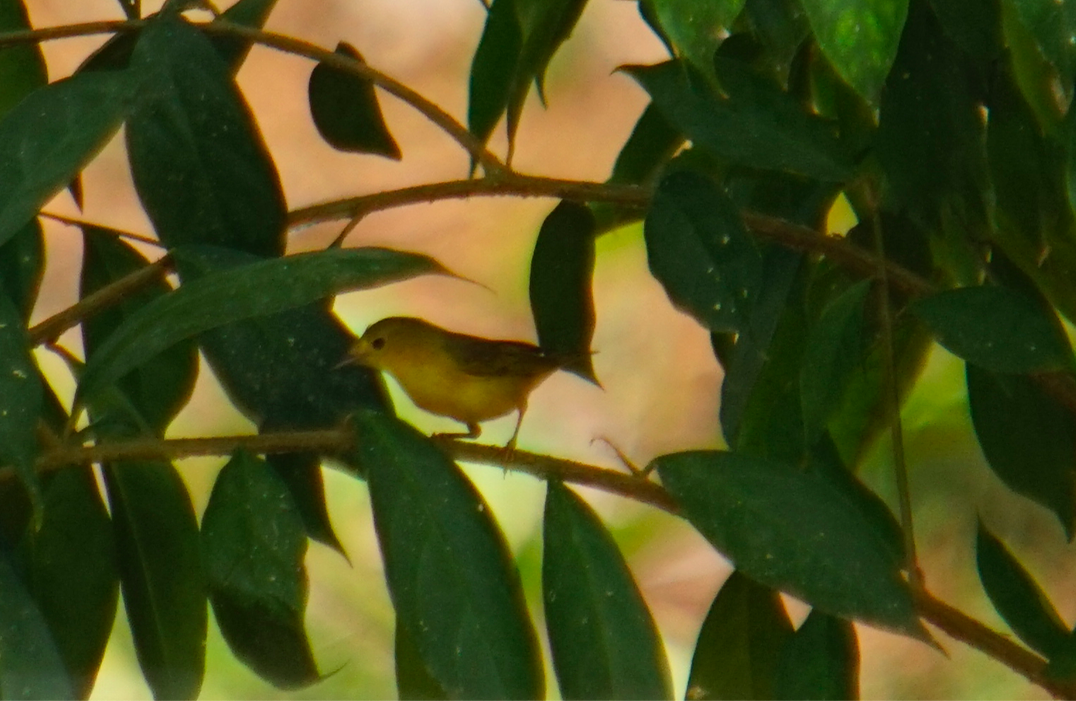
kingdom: Animalia
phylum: Chordata
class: Aves
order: Passeriformes
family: Parulidae
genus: Setophaga
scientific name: Setophaga petechia
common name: Yellow warbler
